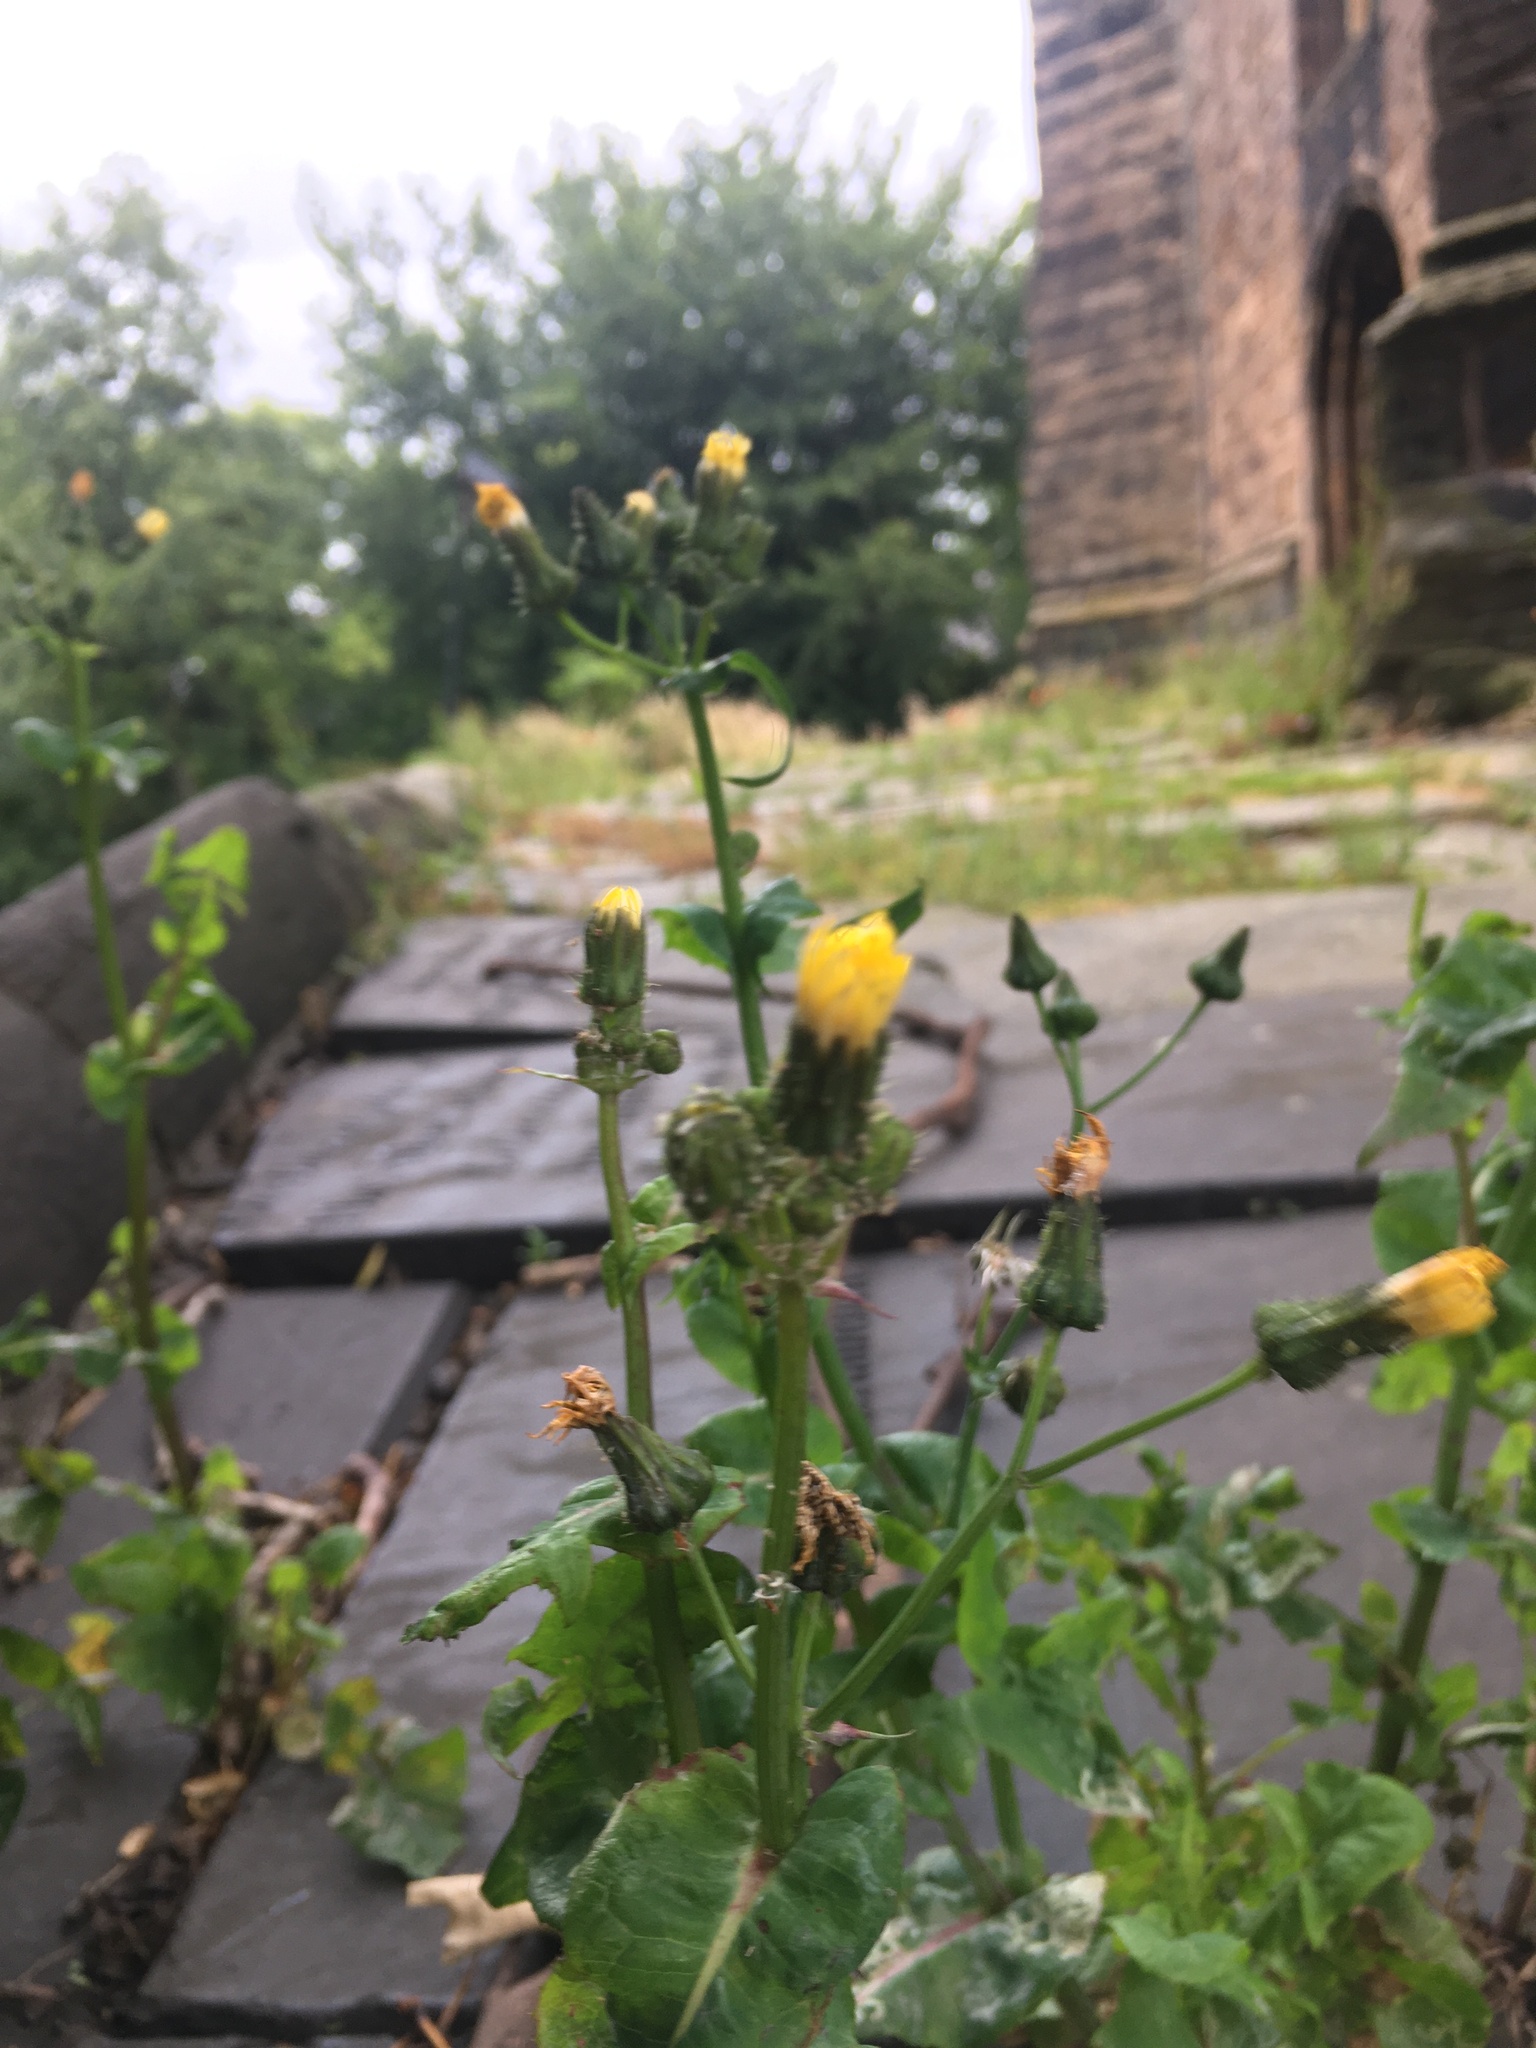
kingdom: Plantae
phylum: Tracheophyta
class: Magnoliopsida
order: Asterales
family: Asteraceae
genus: Sonchus
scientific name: Sonchus oleraceus
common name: Common sowthistle
